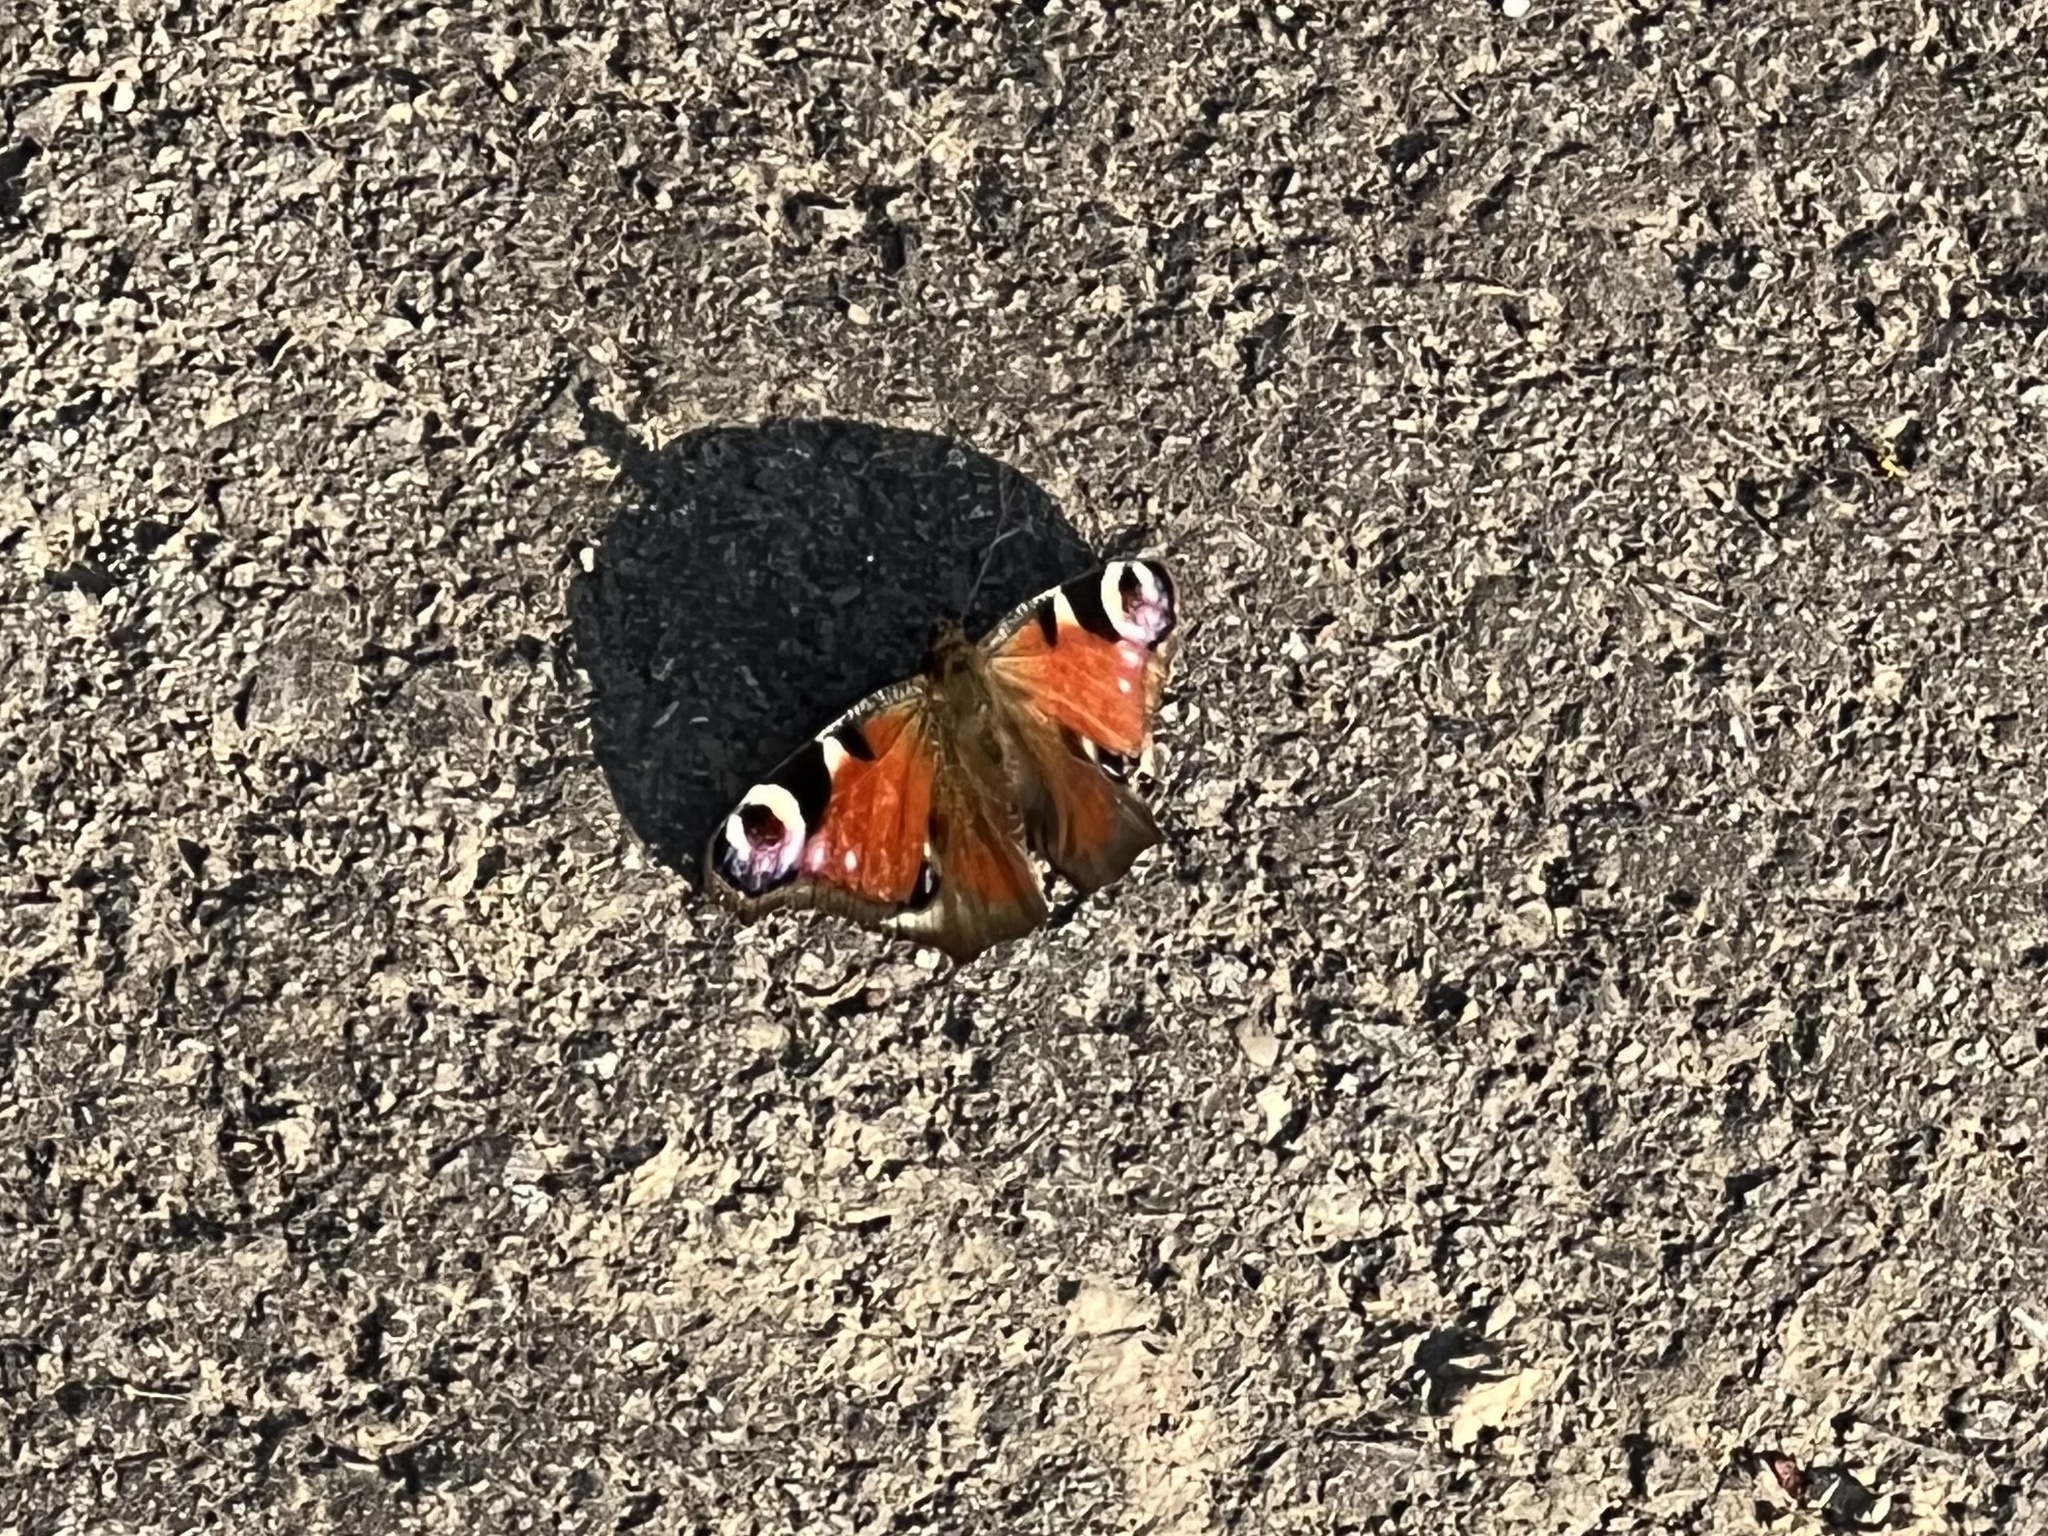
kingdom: Animalia
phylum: Arthropoda
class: Insecta
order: Lepidoptera
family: Nymphalidae
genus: Aglais
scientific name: Aglais io
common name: Peacock
